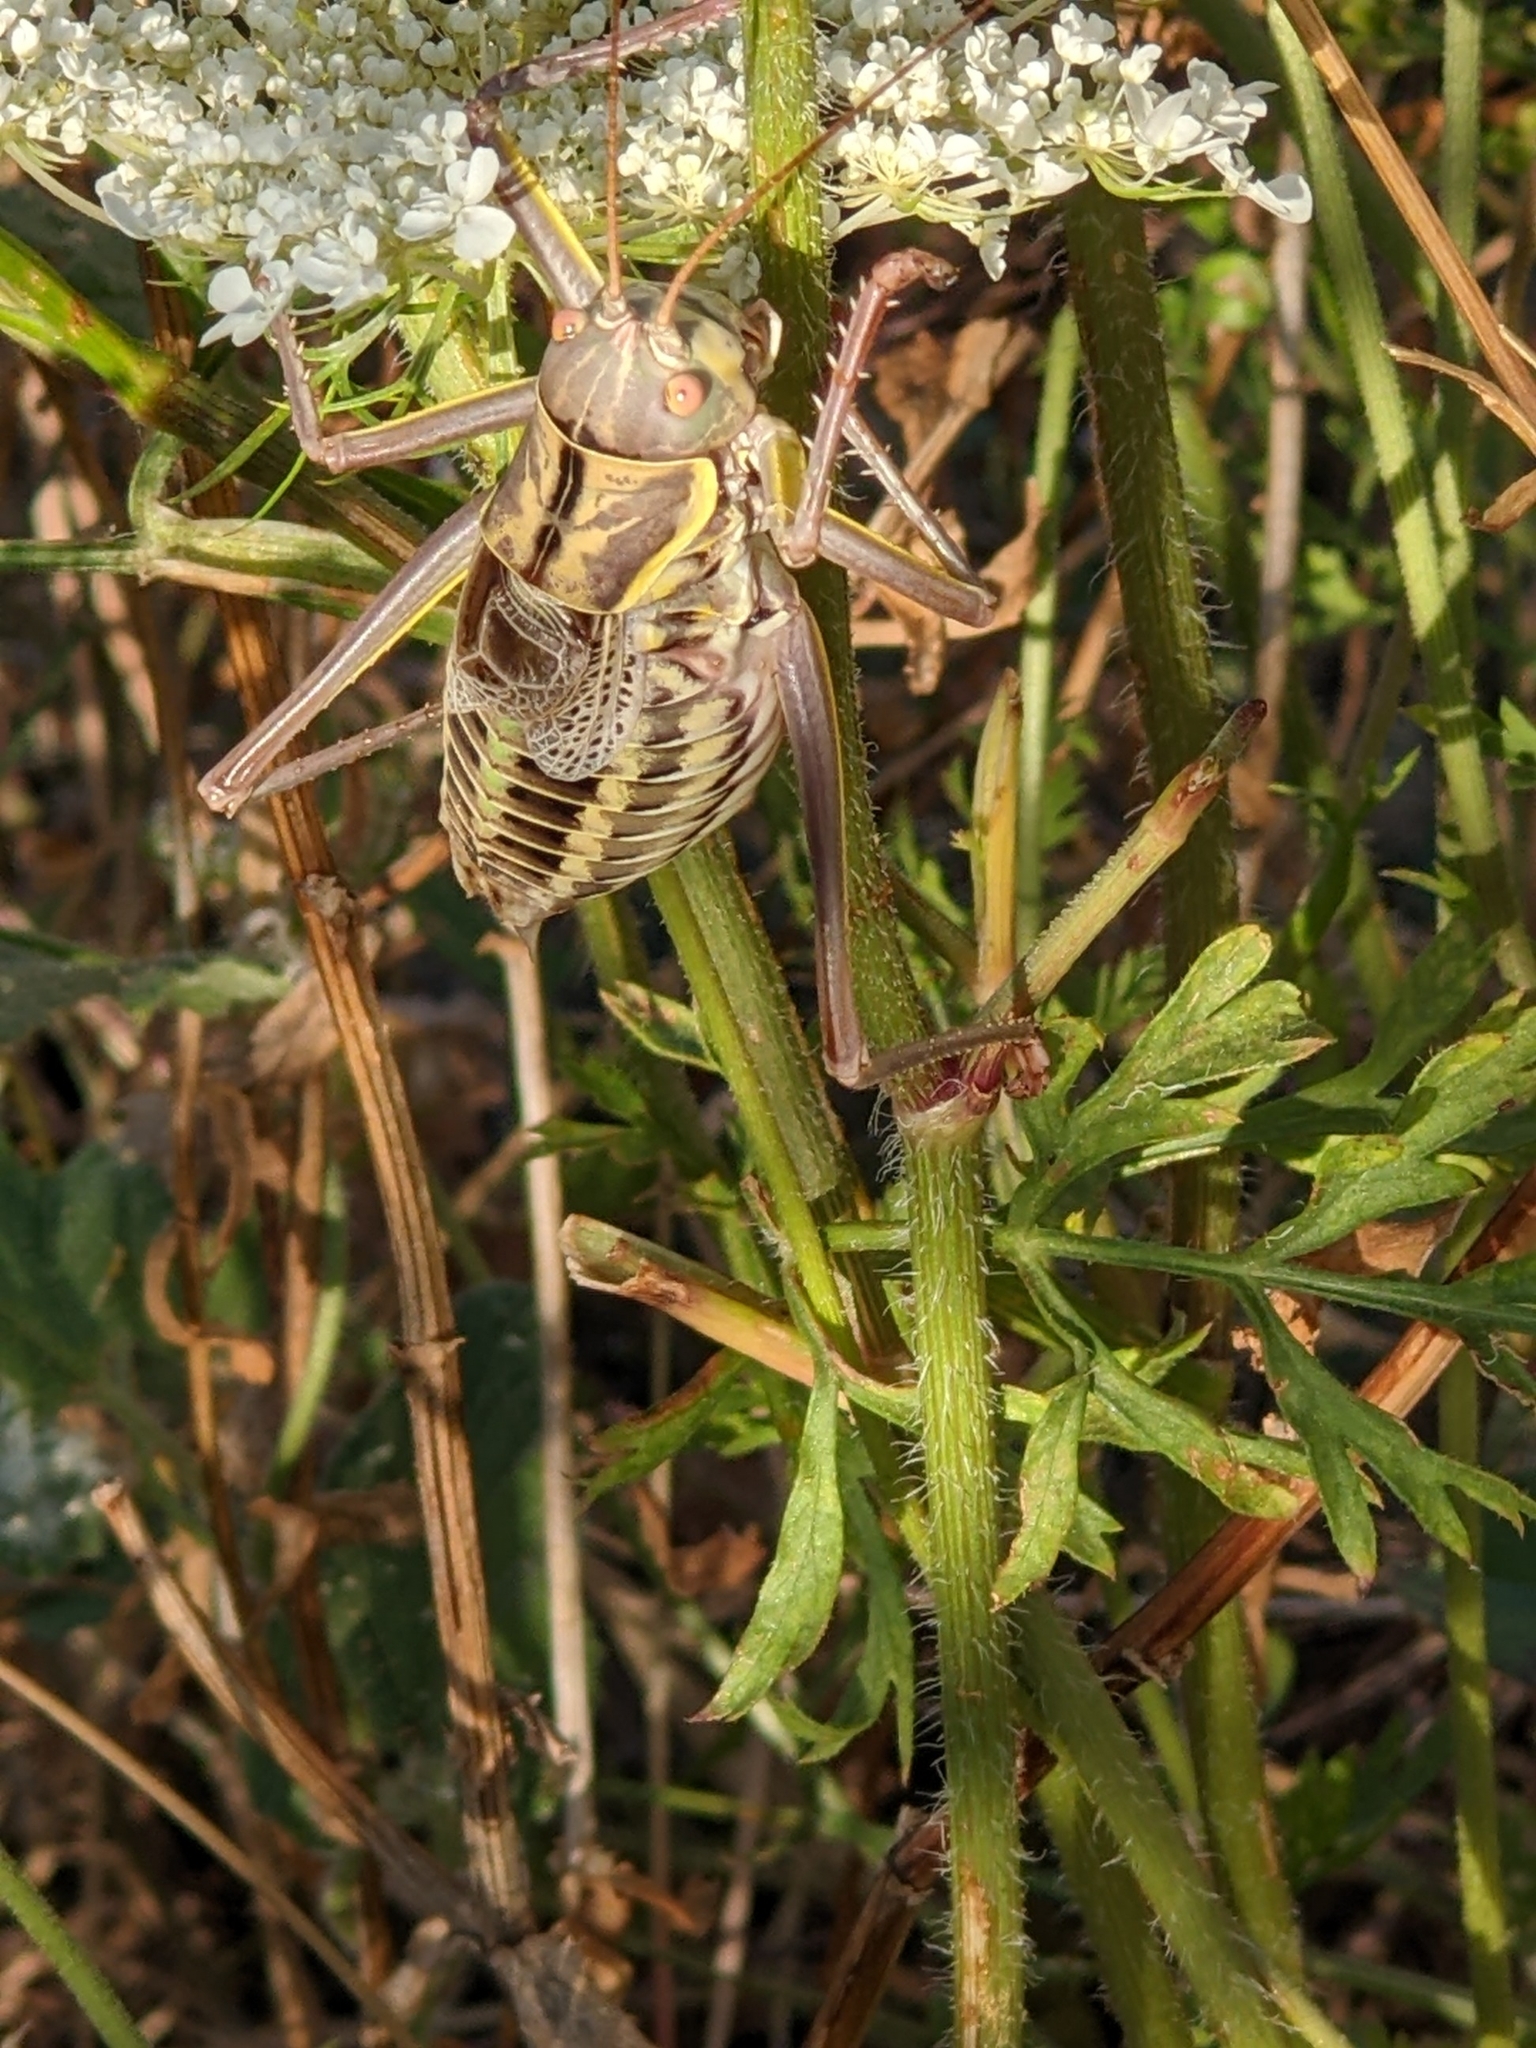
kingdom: Animalia
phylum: Arthropoda
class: Insecta
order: Orthoptera
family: Tettigoniidae
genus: Amphiestris
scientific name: Amphiestris baetica
